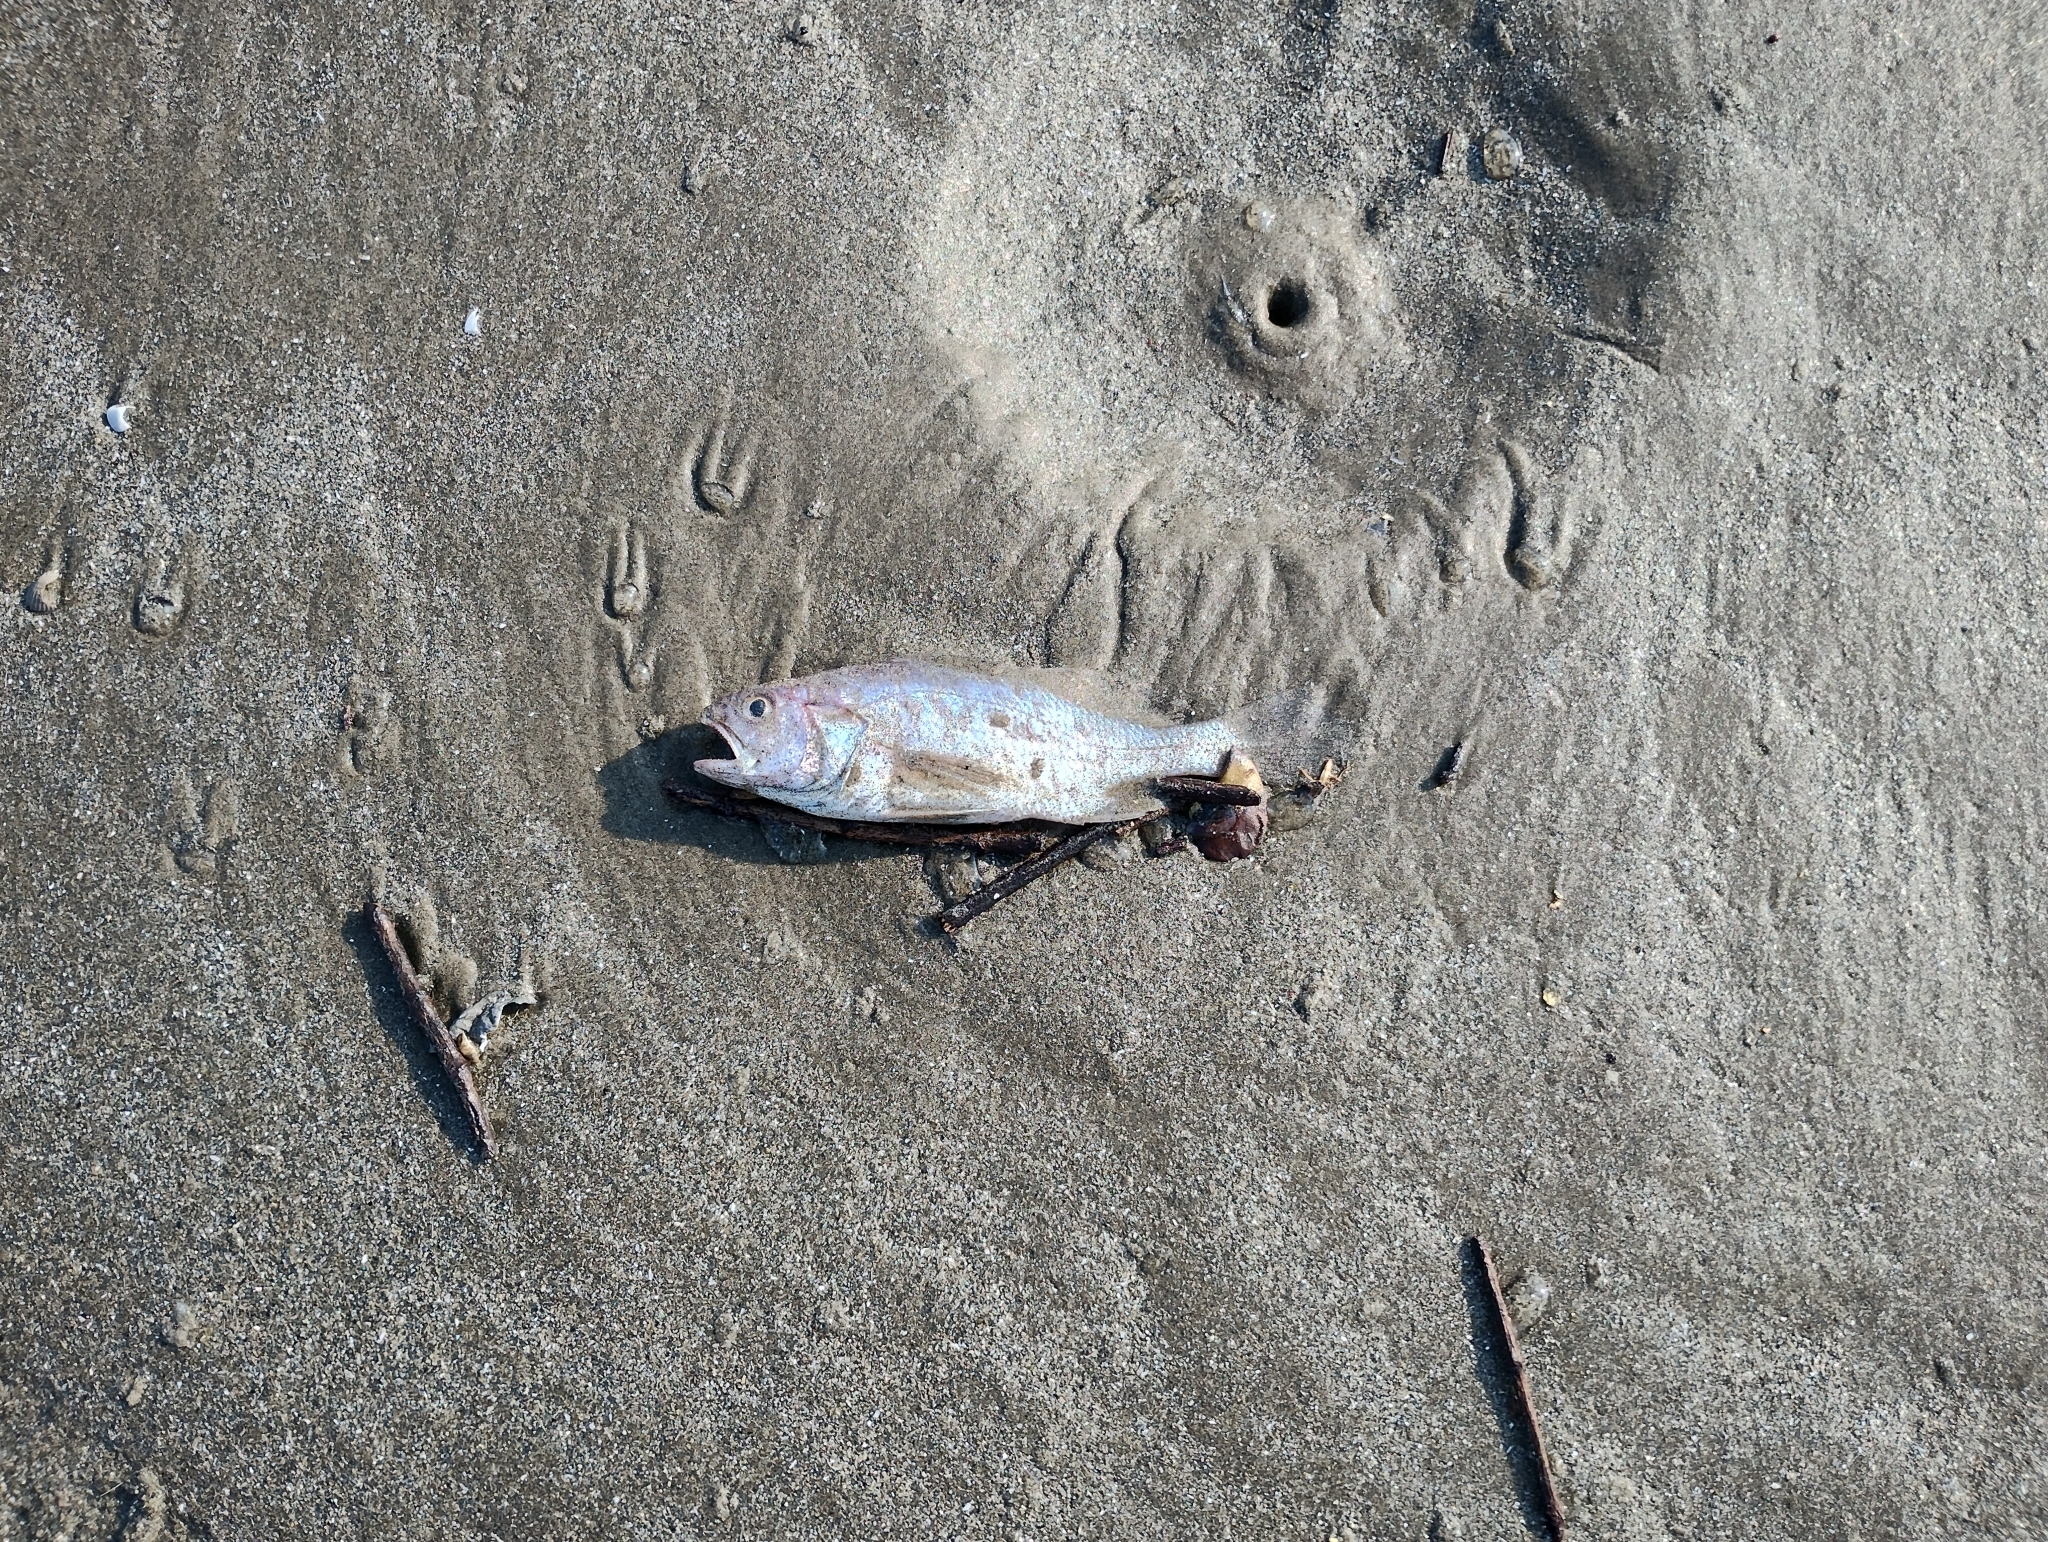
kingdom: Animalia
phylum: Chordata
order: Perciformes
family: Sciaenidae
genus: Stellifer
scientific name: Stellifer brasiliensis
